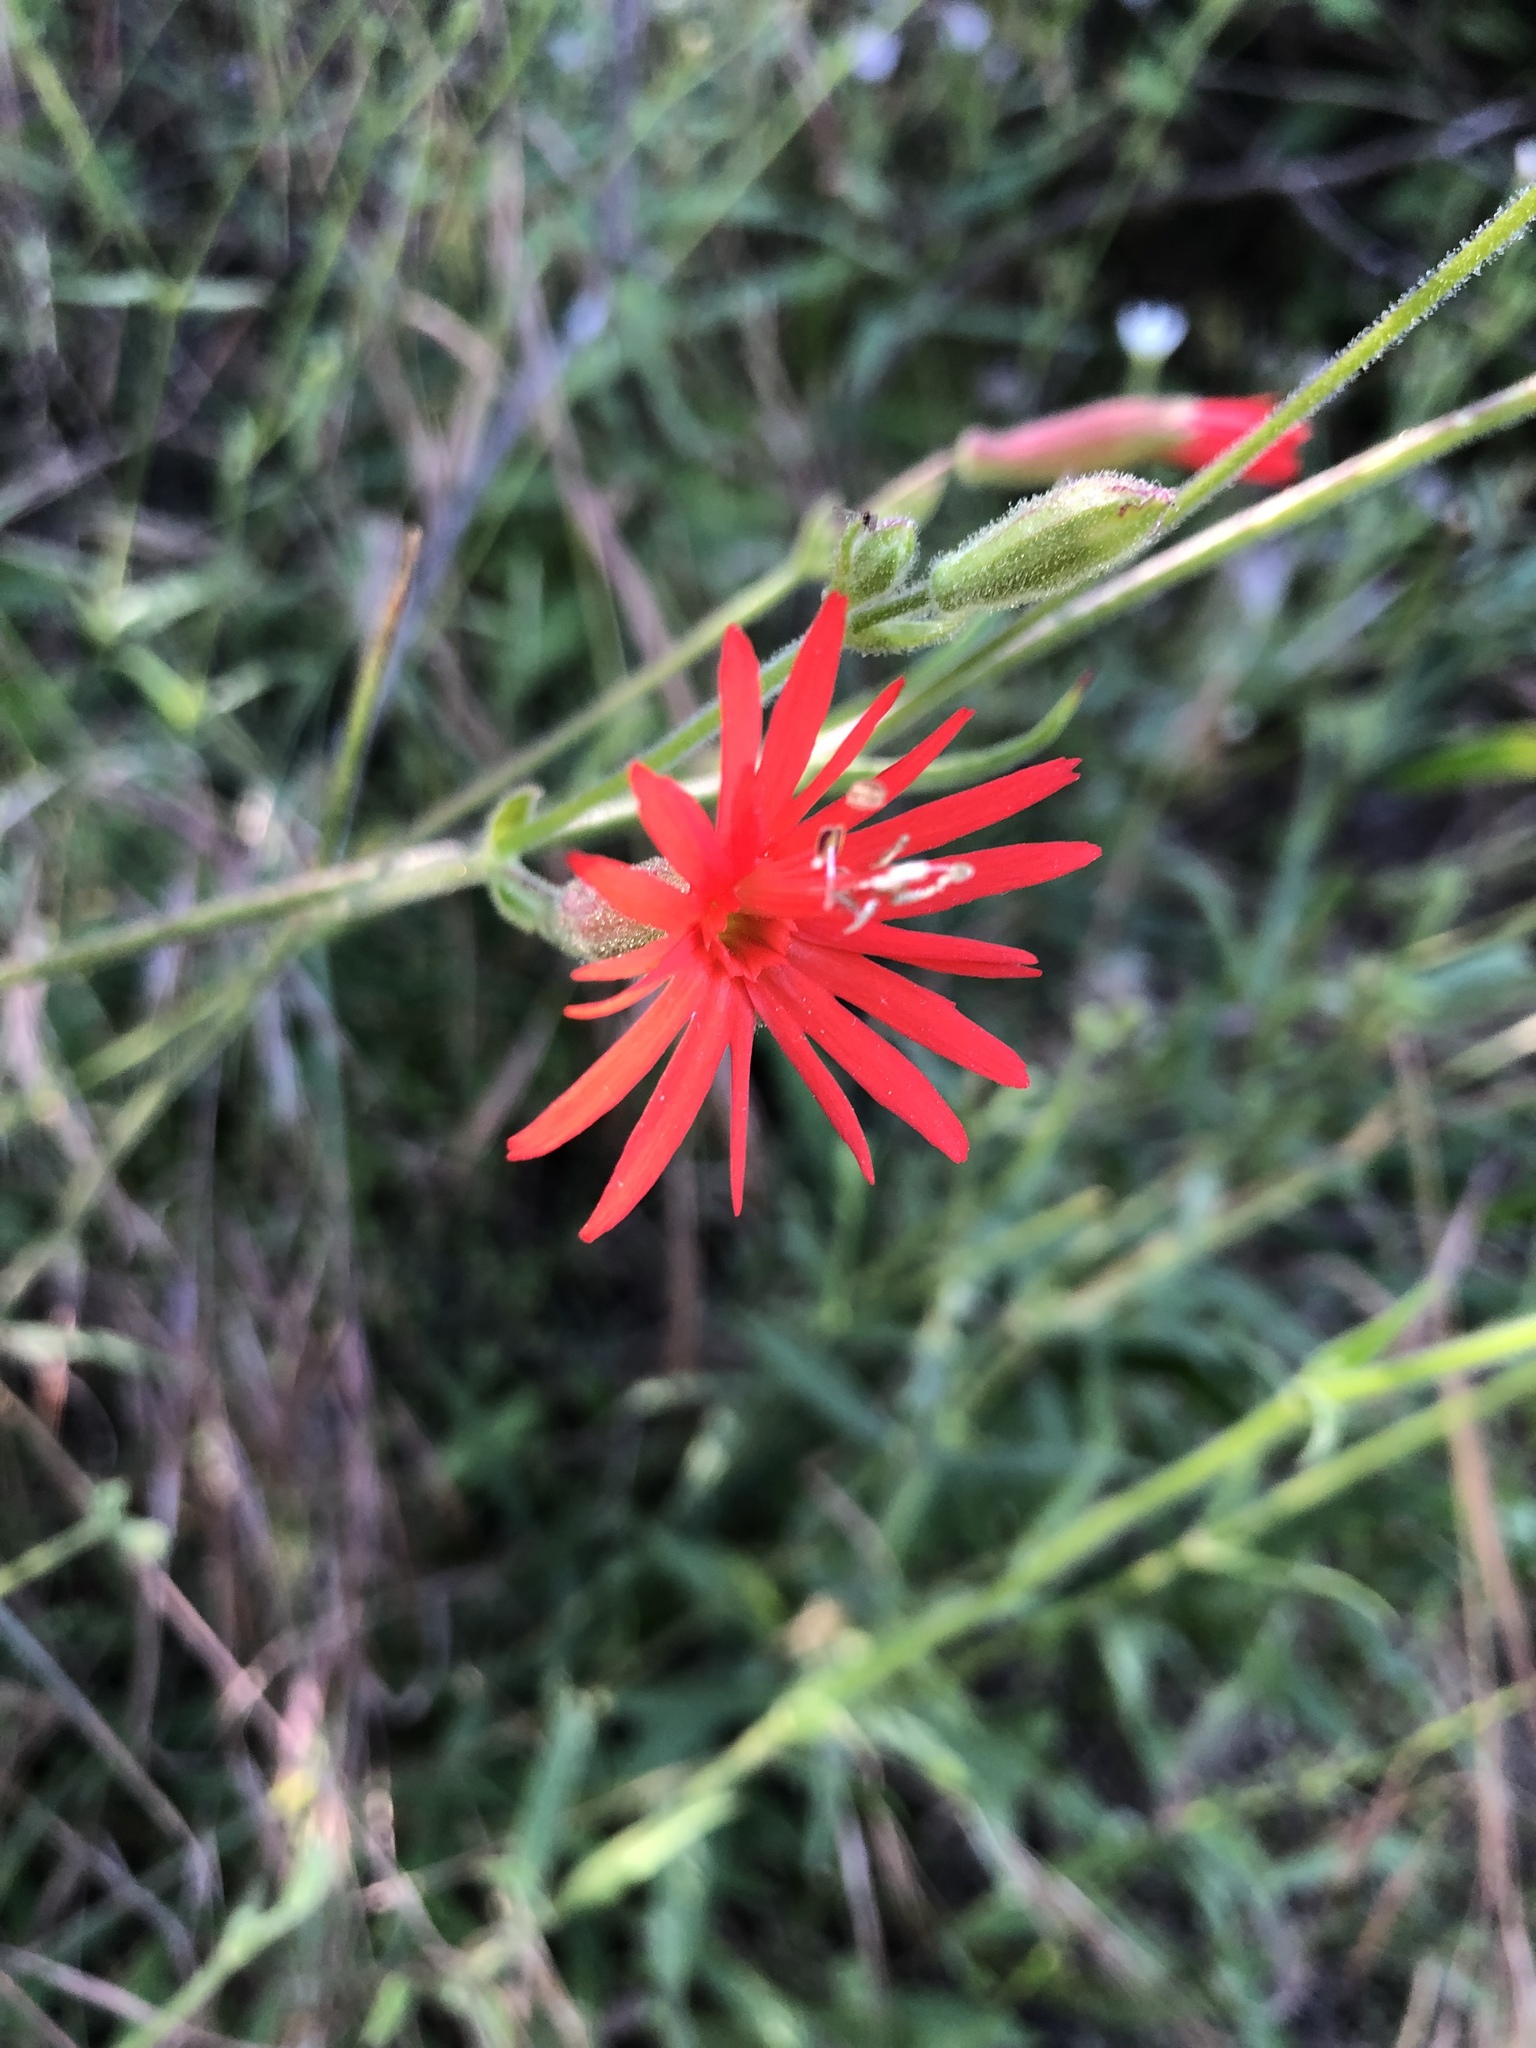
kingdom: Plantae
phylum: Tracheophyta
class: Magnoliopsida
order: Caryophyllales
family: Caryophyllaceae
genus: Silene
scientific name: Silene laciniata
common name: Indian-pink
